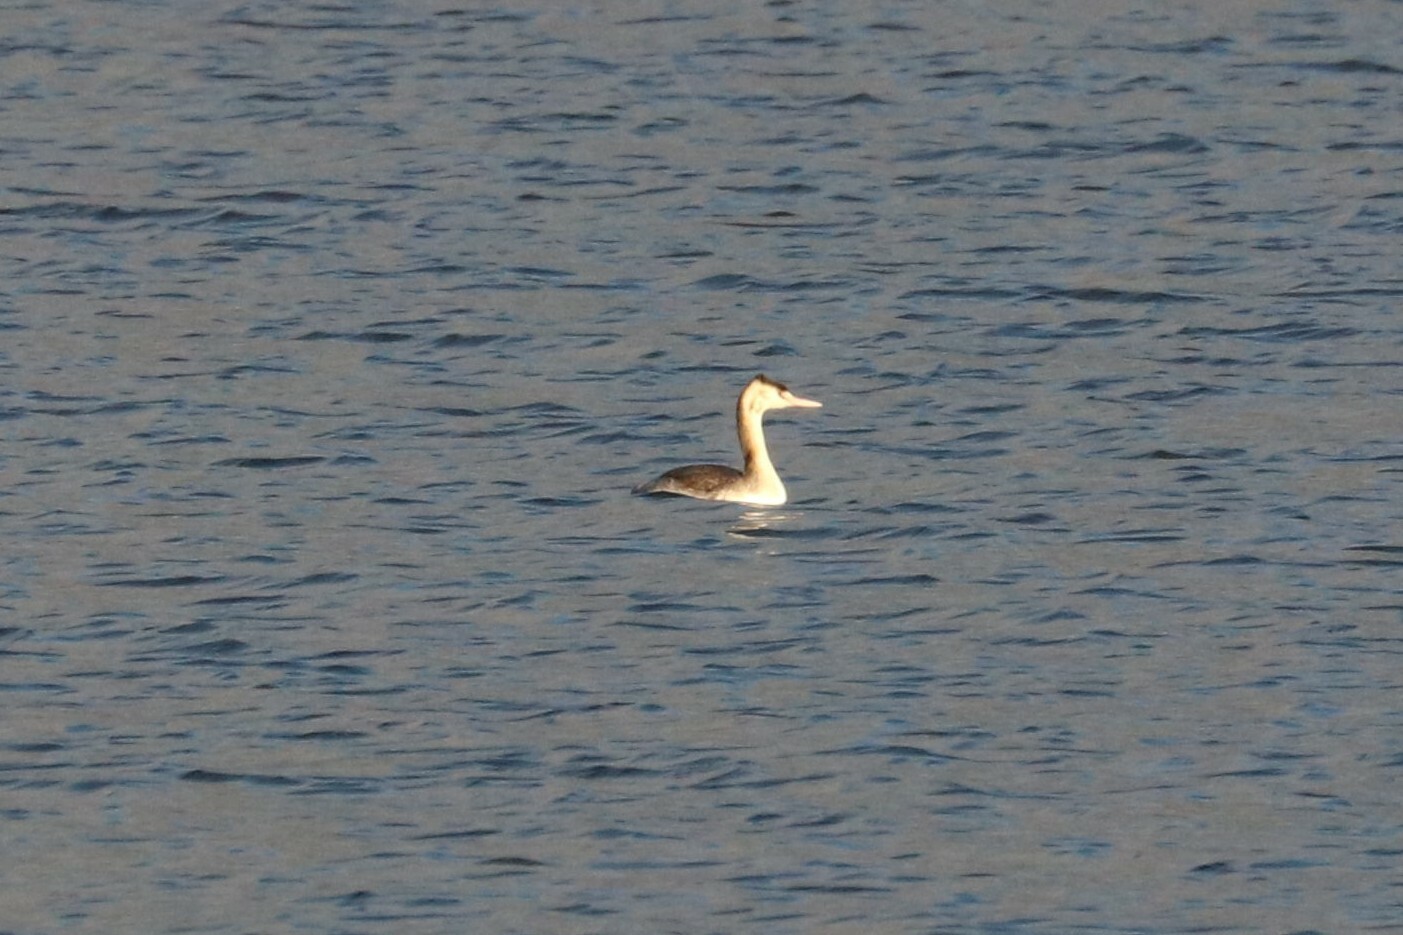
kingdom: Animalia
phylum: Chordata
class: Aves
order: Podicipediformes
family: Podicipedidae
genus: Podiceps
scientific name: Podiceps cristatus
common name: Great crested grebe
